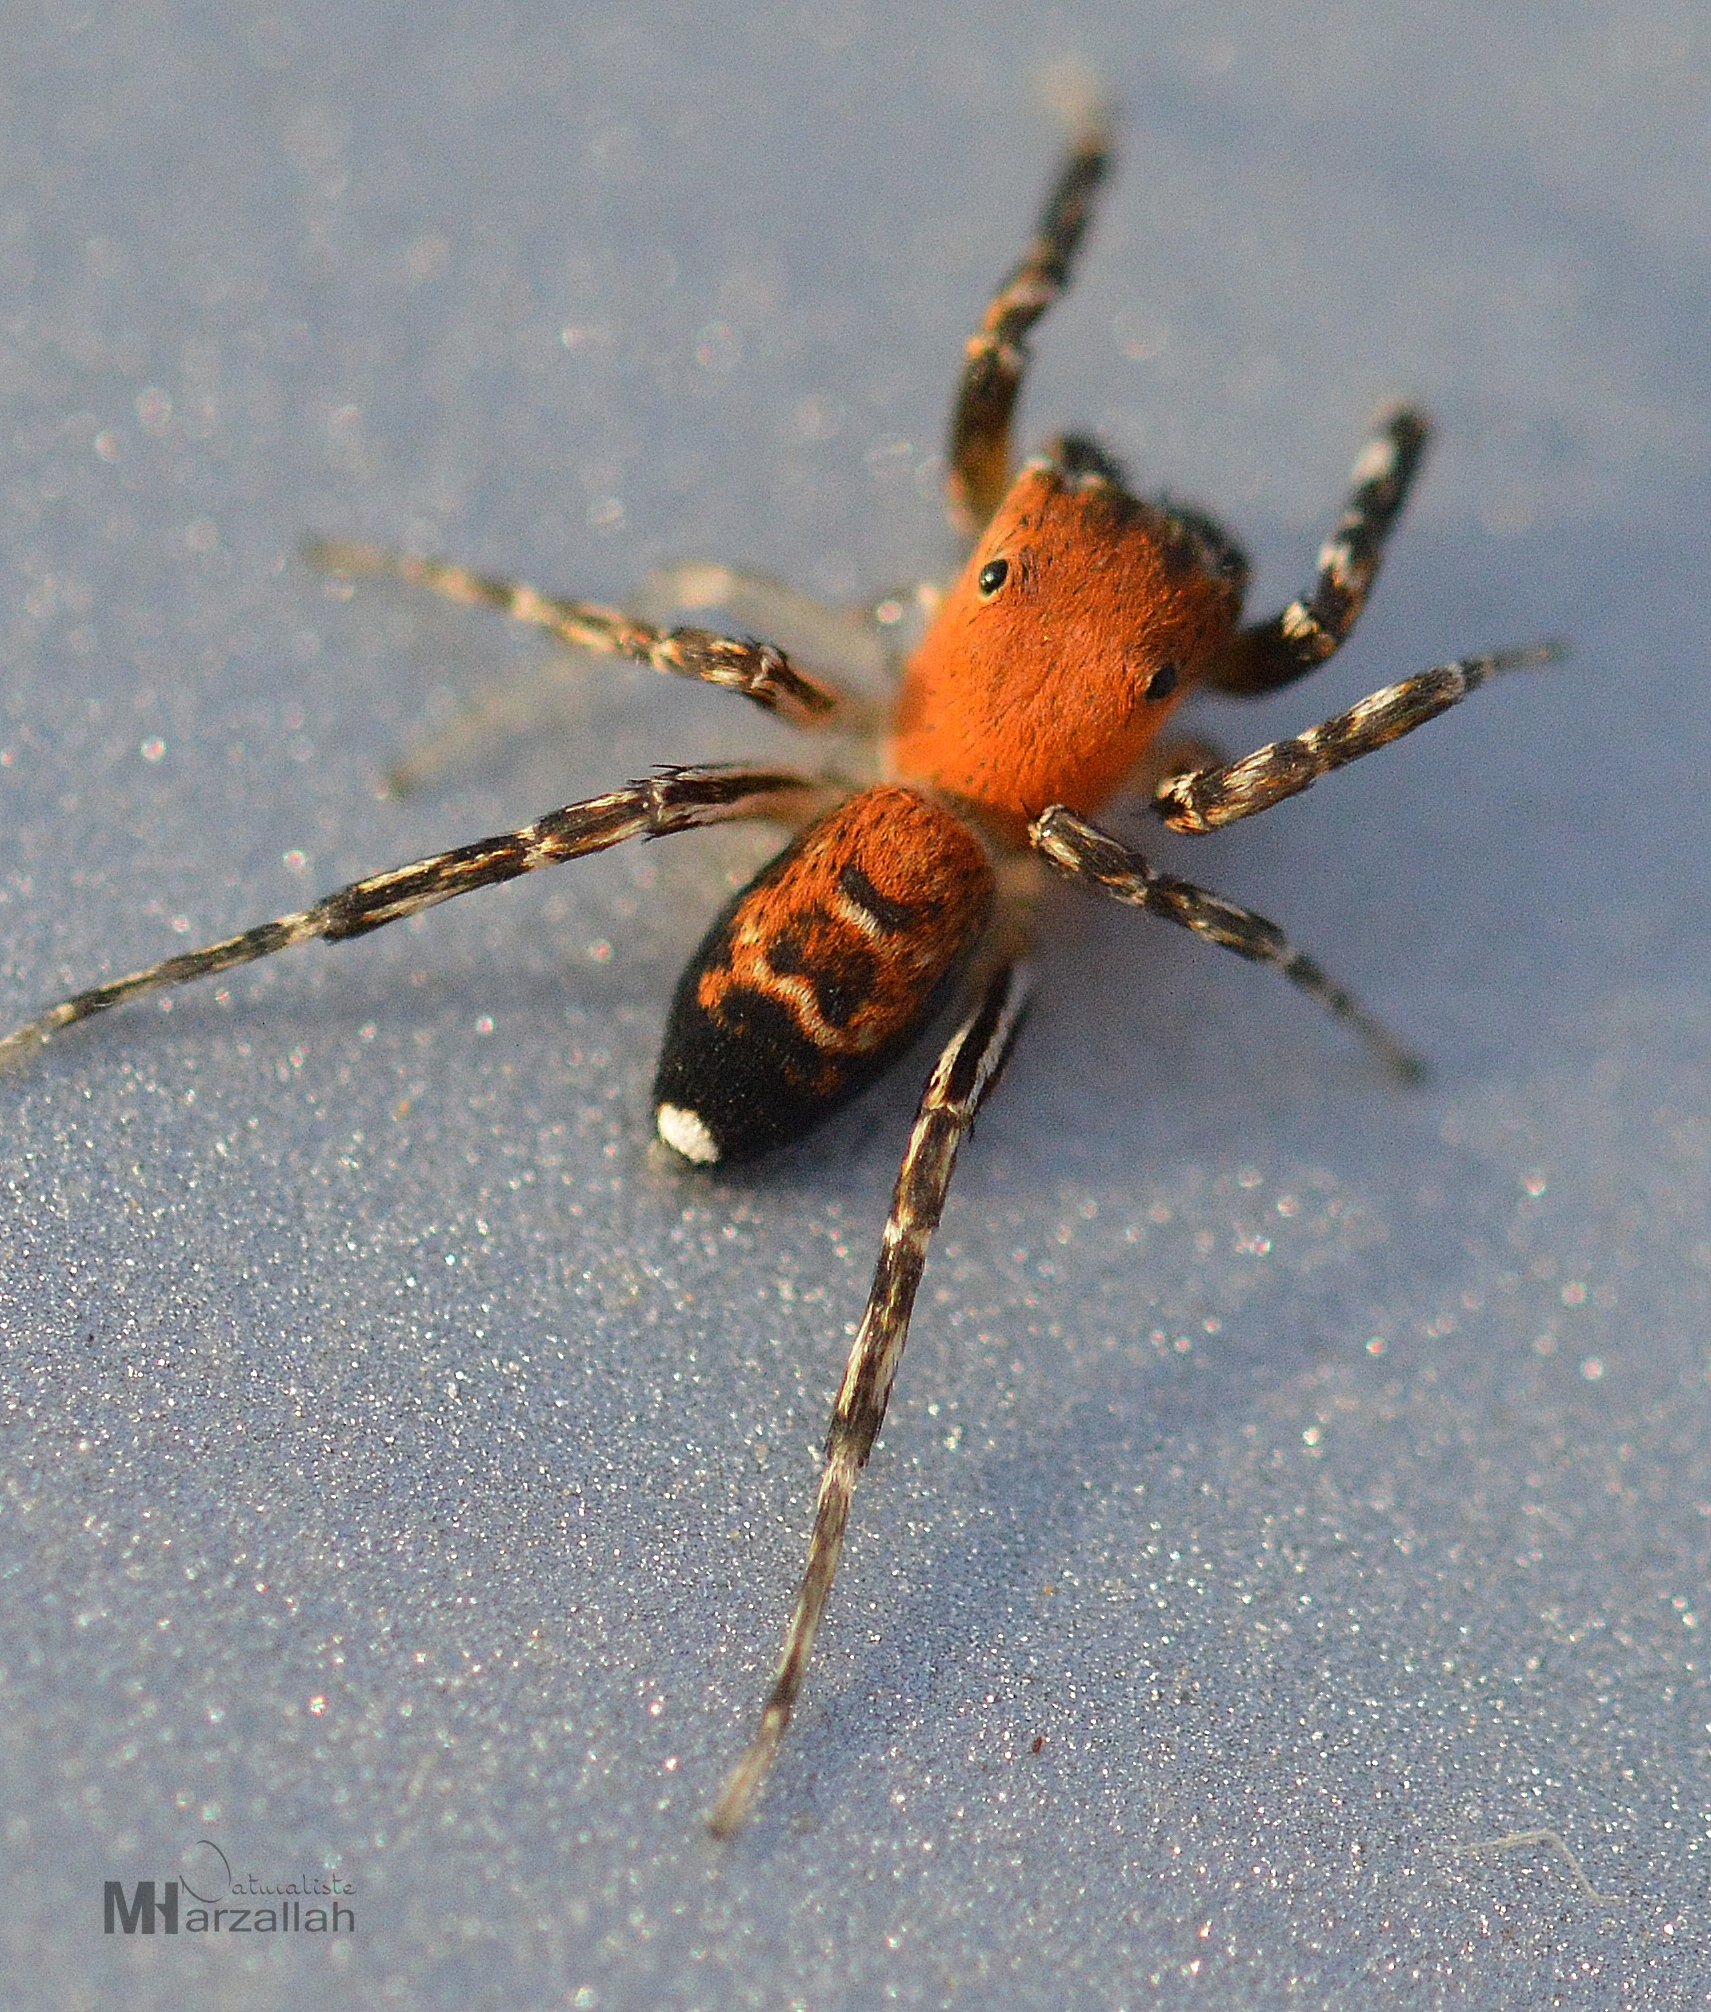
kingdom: Animalia
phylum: Arthropoda
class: Arachnida
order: Araneae
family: Salticidae
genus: Cyrba
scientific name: Cyrba algerina
